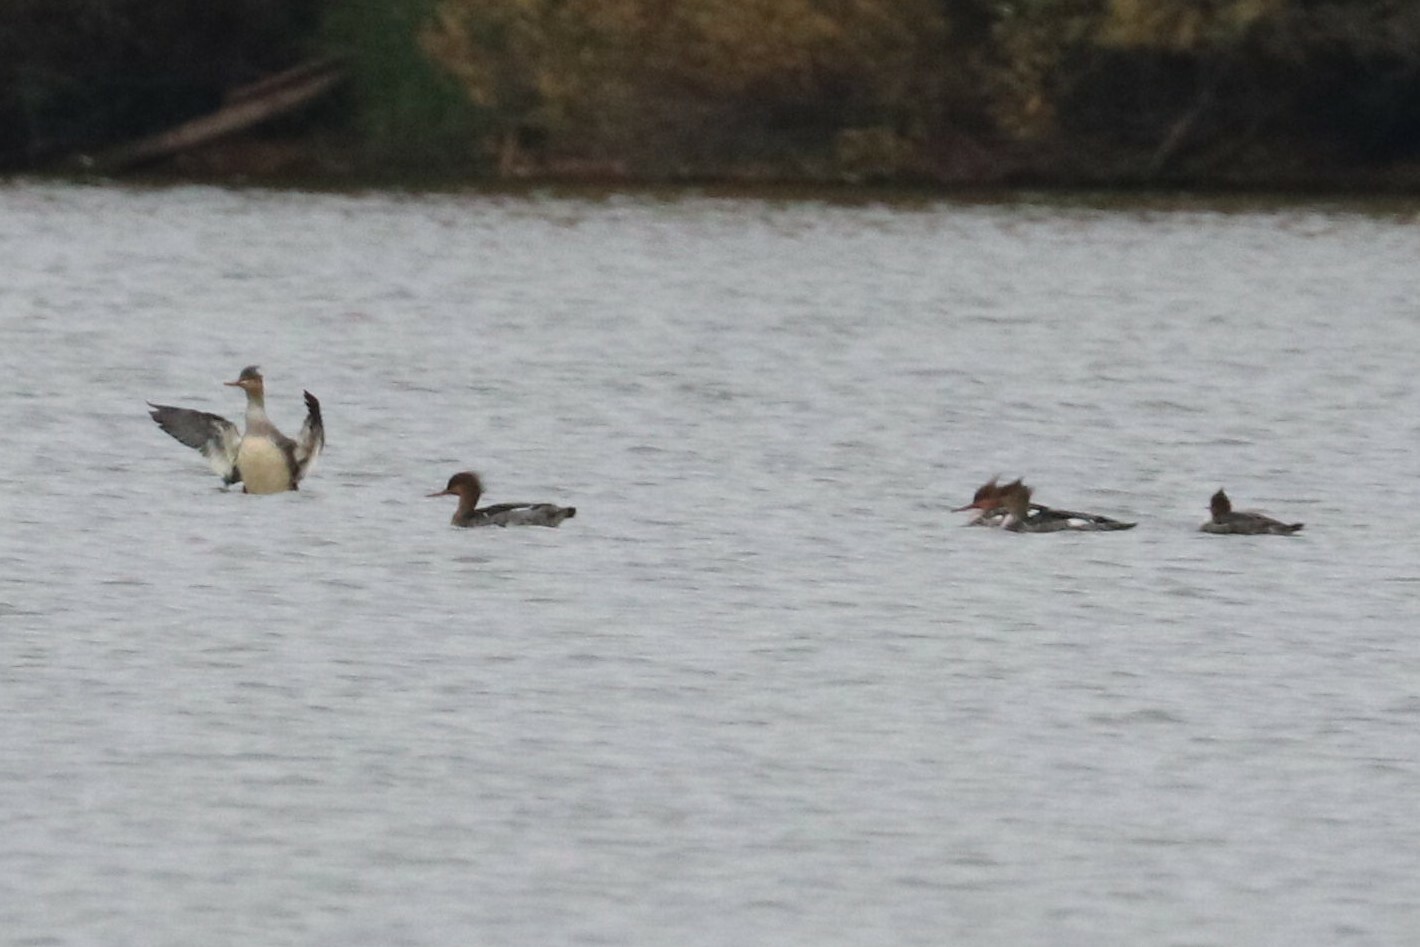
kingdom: Animalia
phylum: Chordata
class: Aves
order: Anseriformes
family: Anatidae
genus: Mergus
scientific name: Mergus serrator
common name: Red-breasted merganser
